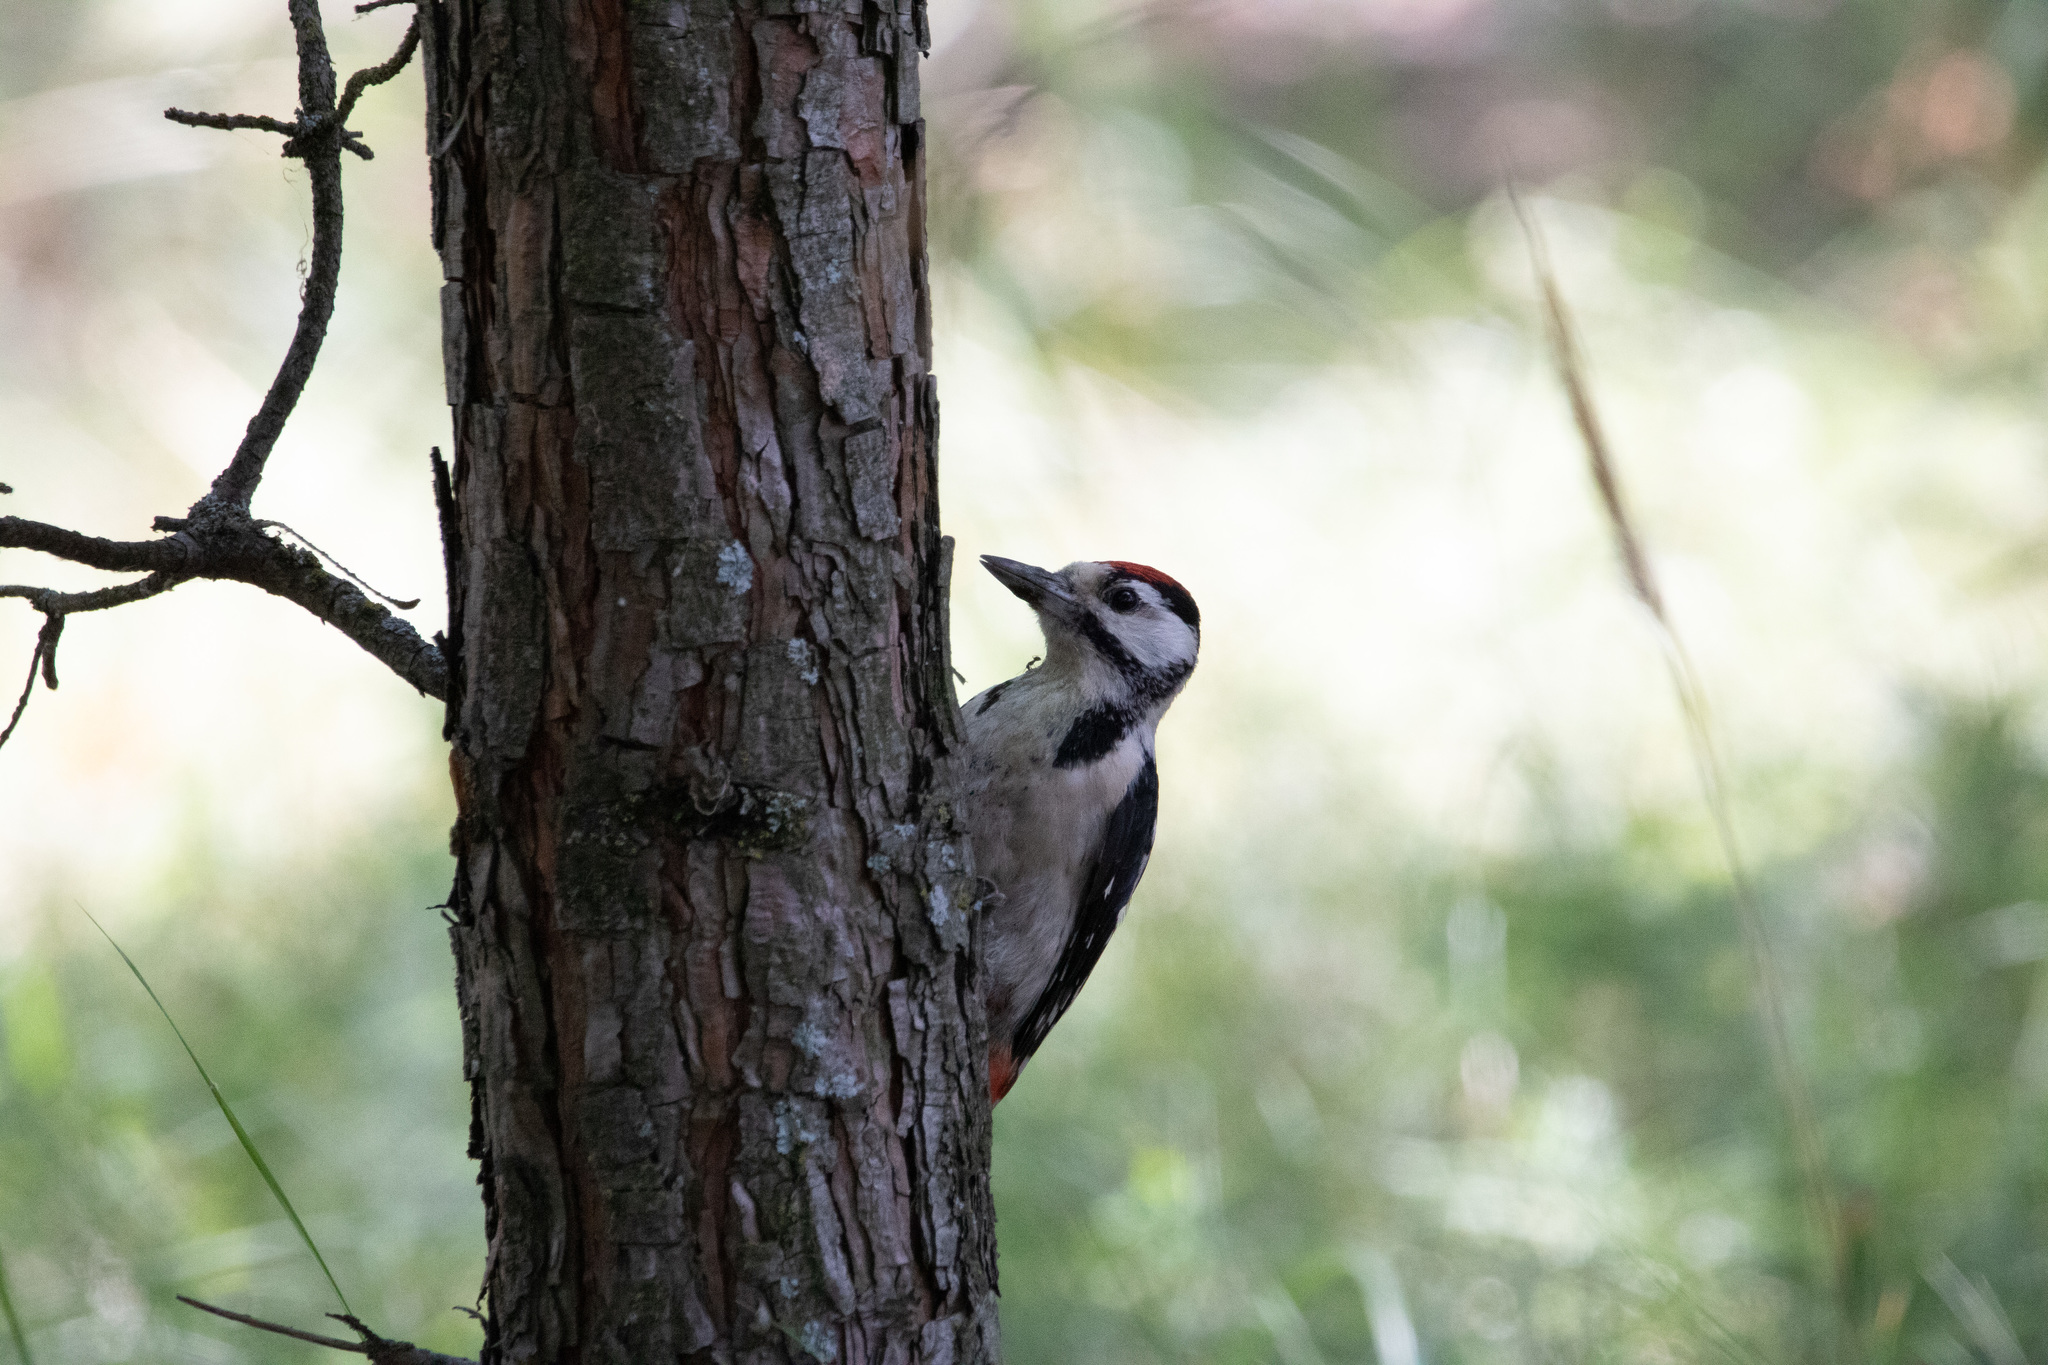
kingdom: Animalia
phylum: Chordata
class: Aves
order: Piciformes
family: Picidae
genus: Dendrocopos
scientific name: Dendrocopos major
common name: Great spotted woodpecker
